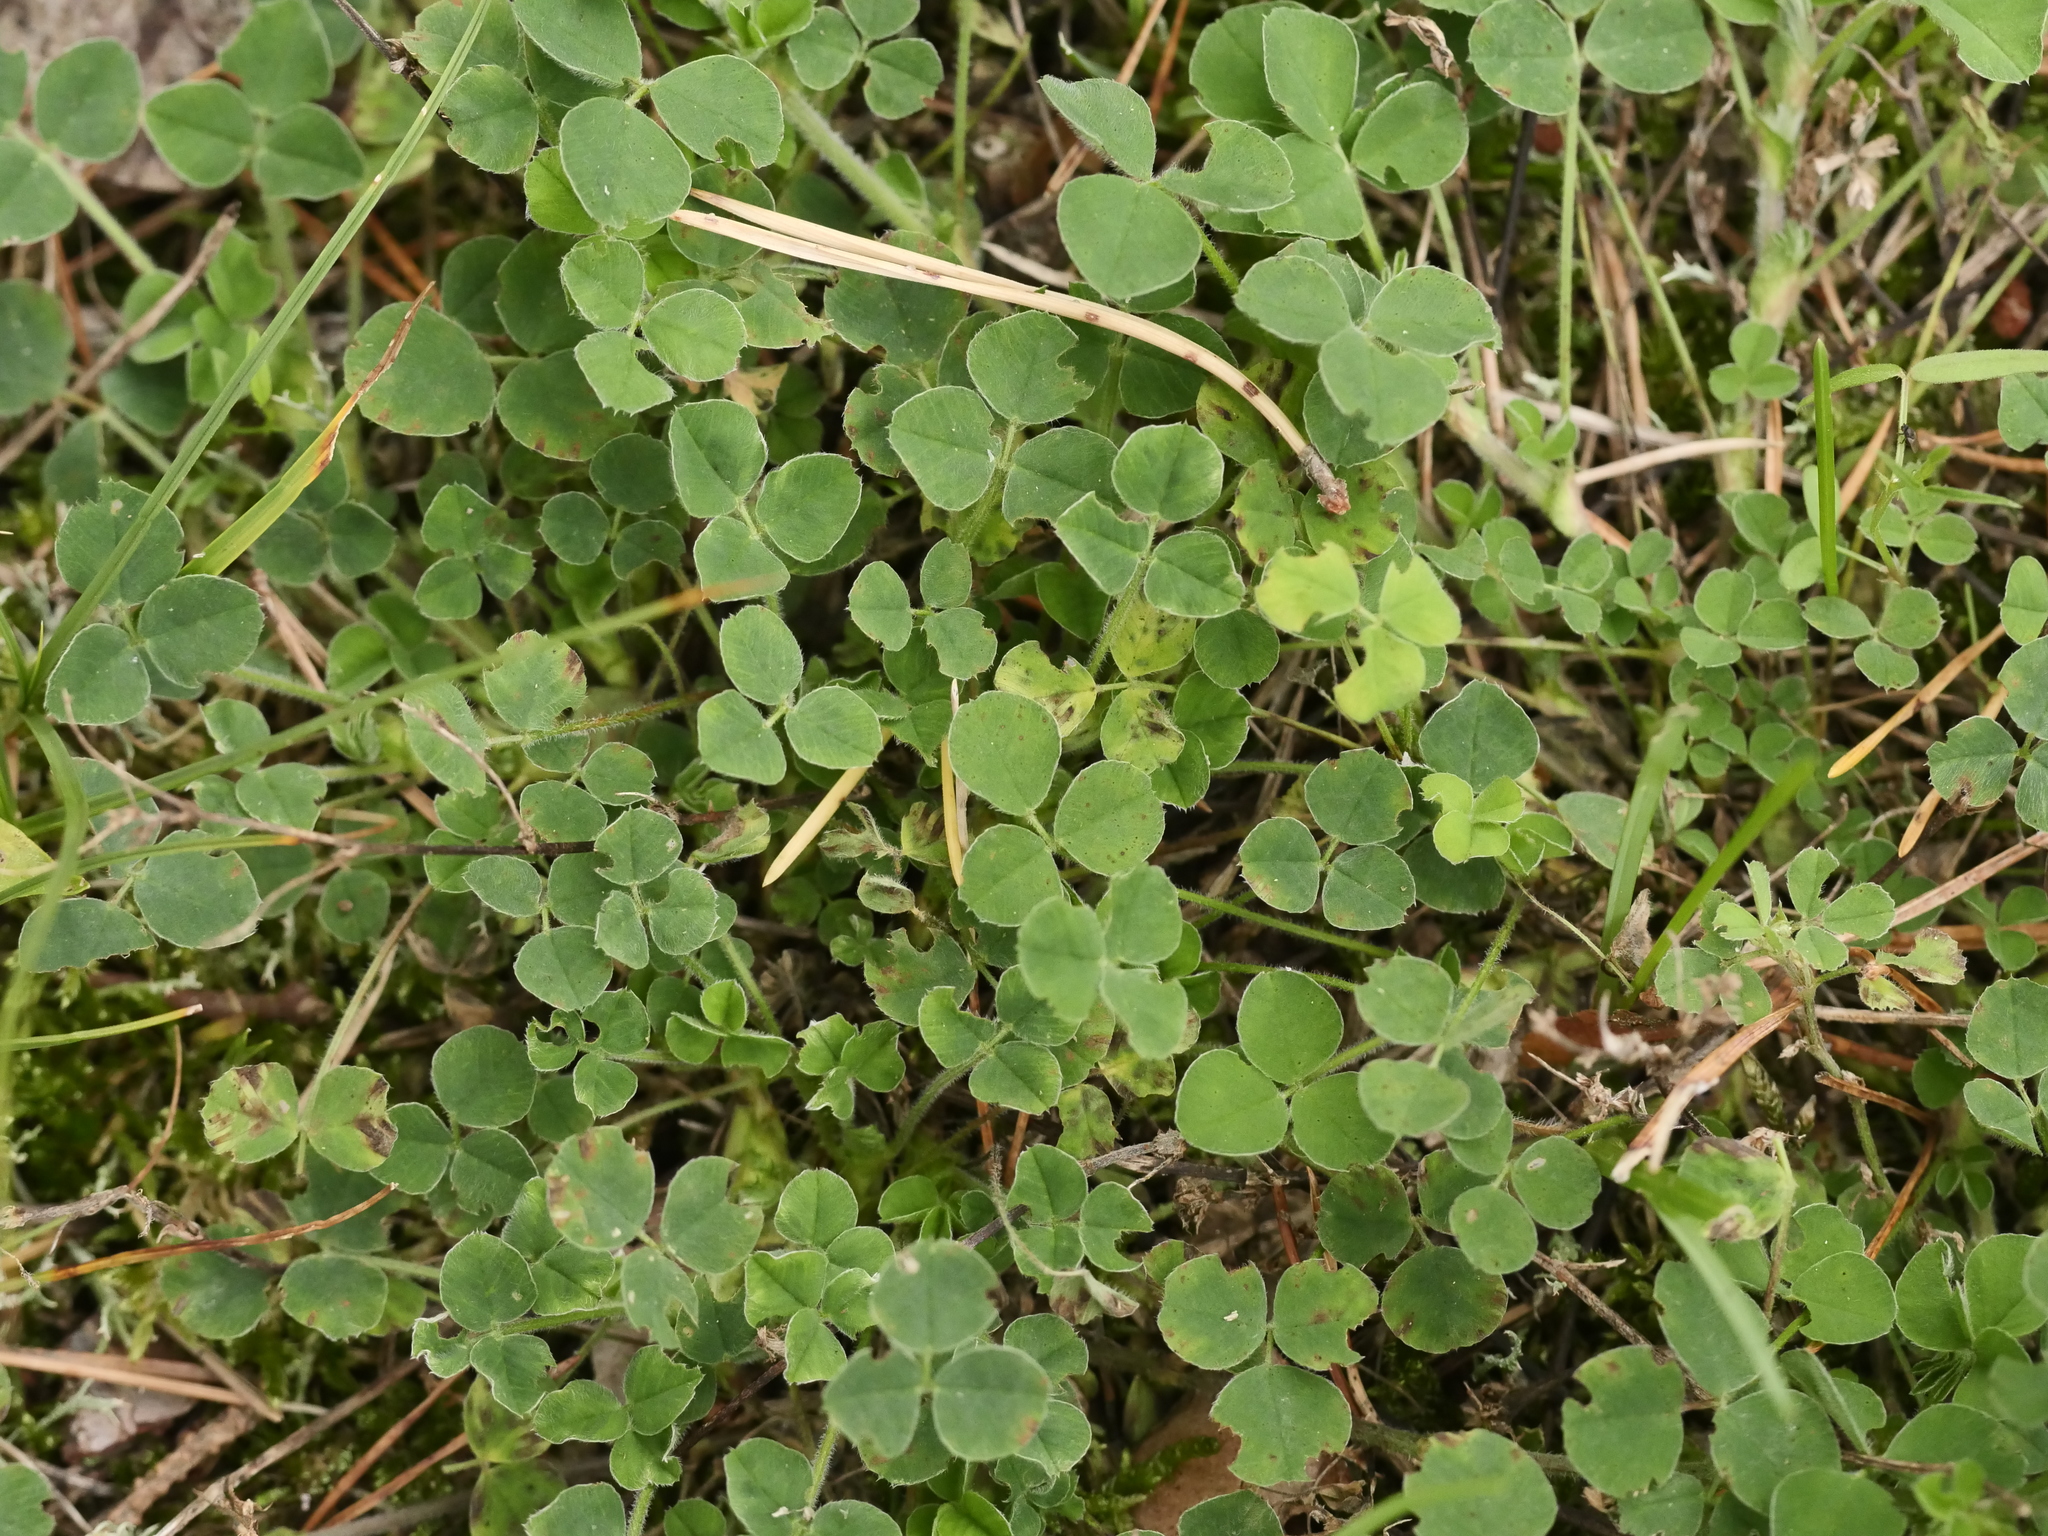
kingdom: Plantae
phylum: Tracheophyta
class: Magnoliopsida
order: Fabales
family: Fabaceae
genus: Medicago
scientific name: Medicago lupulina
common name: Black medick
